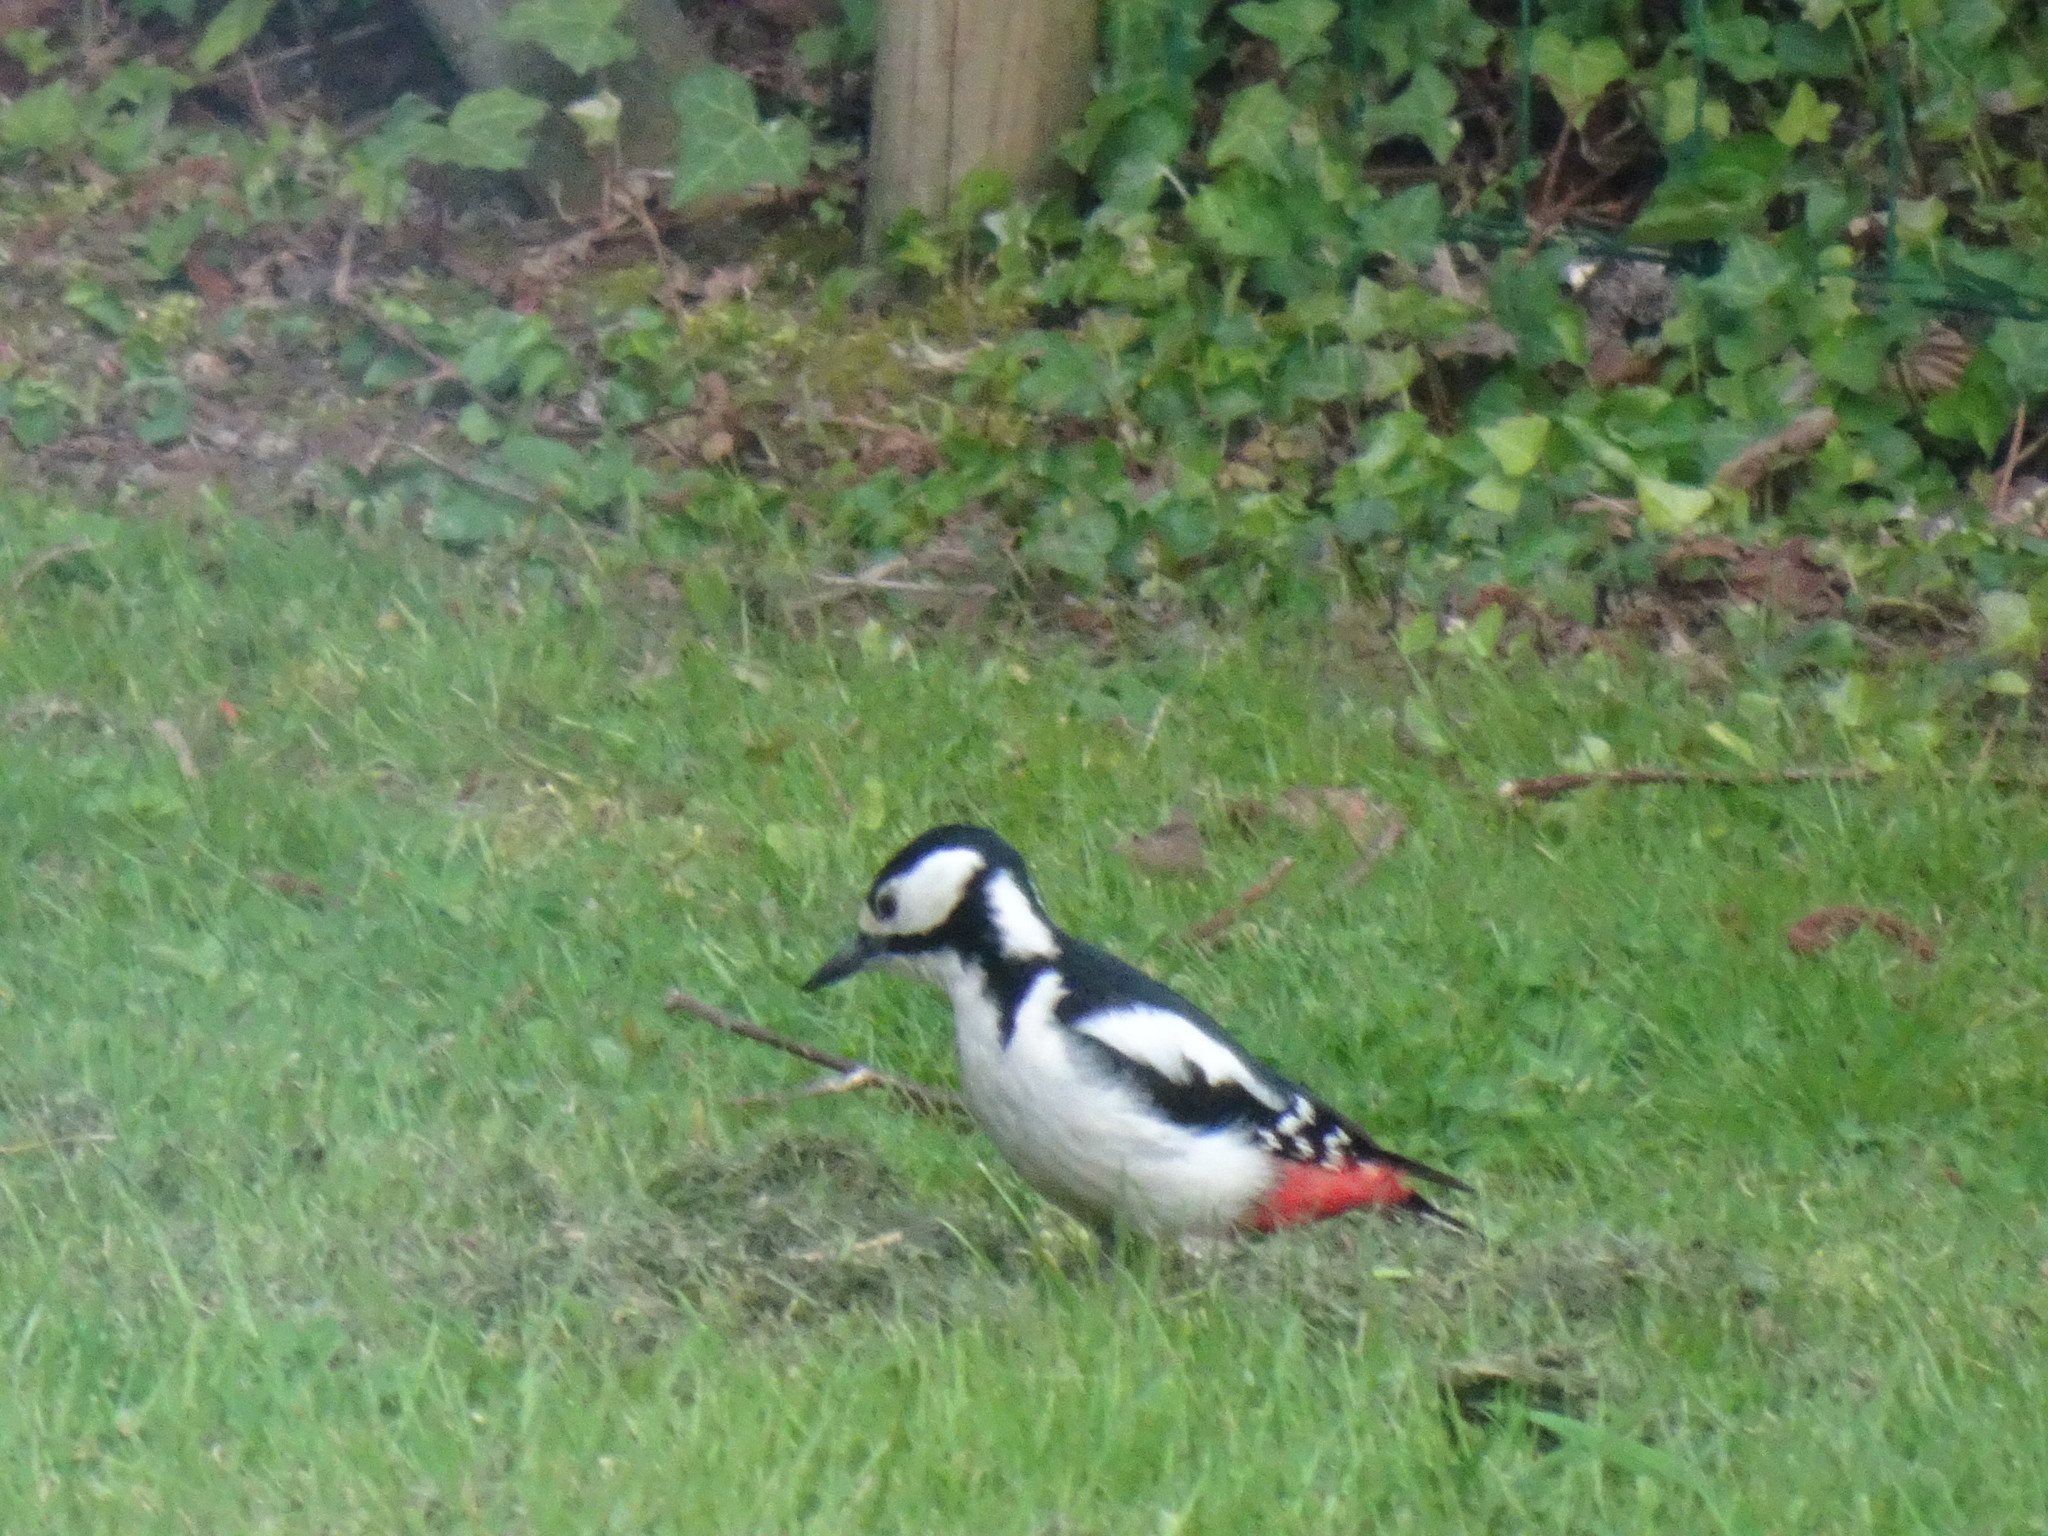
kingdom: Animalia
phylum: Chordata
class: Aves
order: Piciformes
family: Picidae
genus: Dendrocopos
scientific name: Dendrocopos major
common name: Great spotted woodpecker
